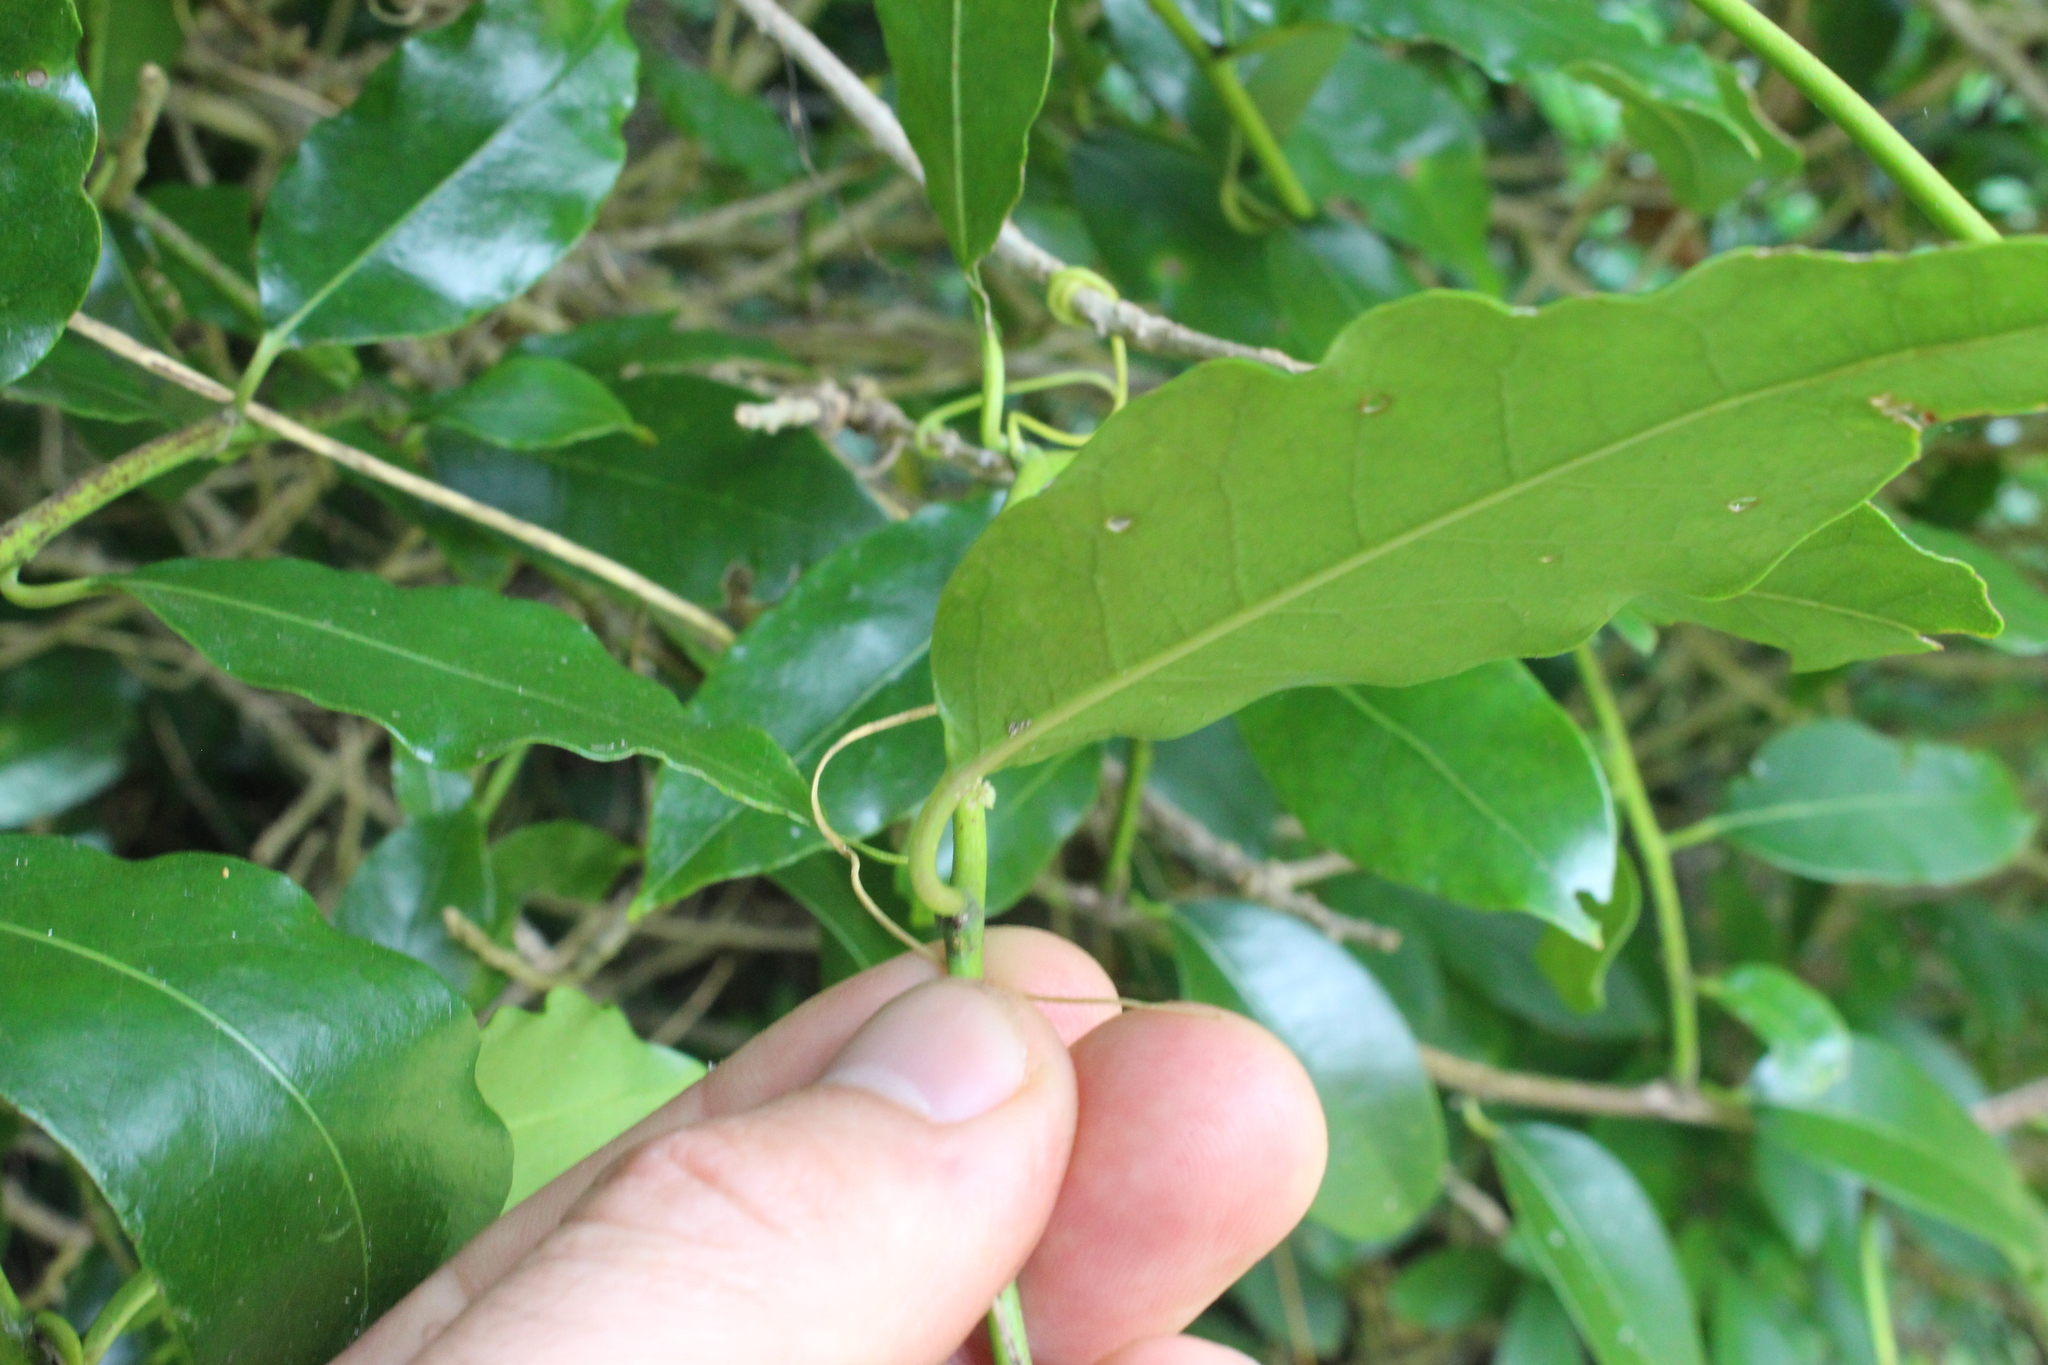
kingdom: Plantae
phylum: Tracheophyta
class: Magnoliopsida
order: Malpighiales
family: Passifloraceae
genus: Passiflora
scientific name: Passiflora tetrandra
